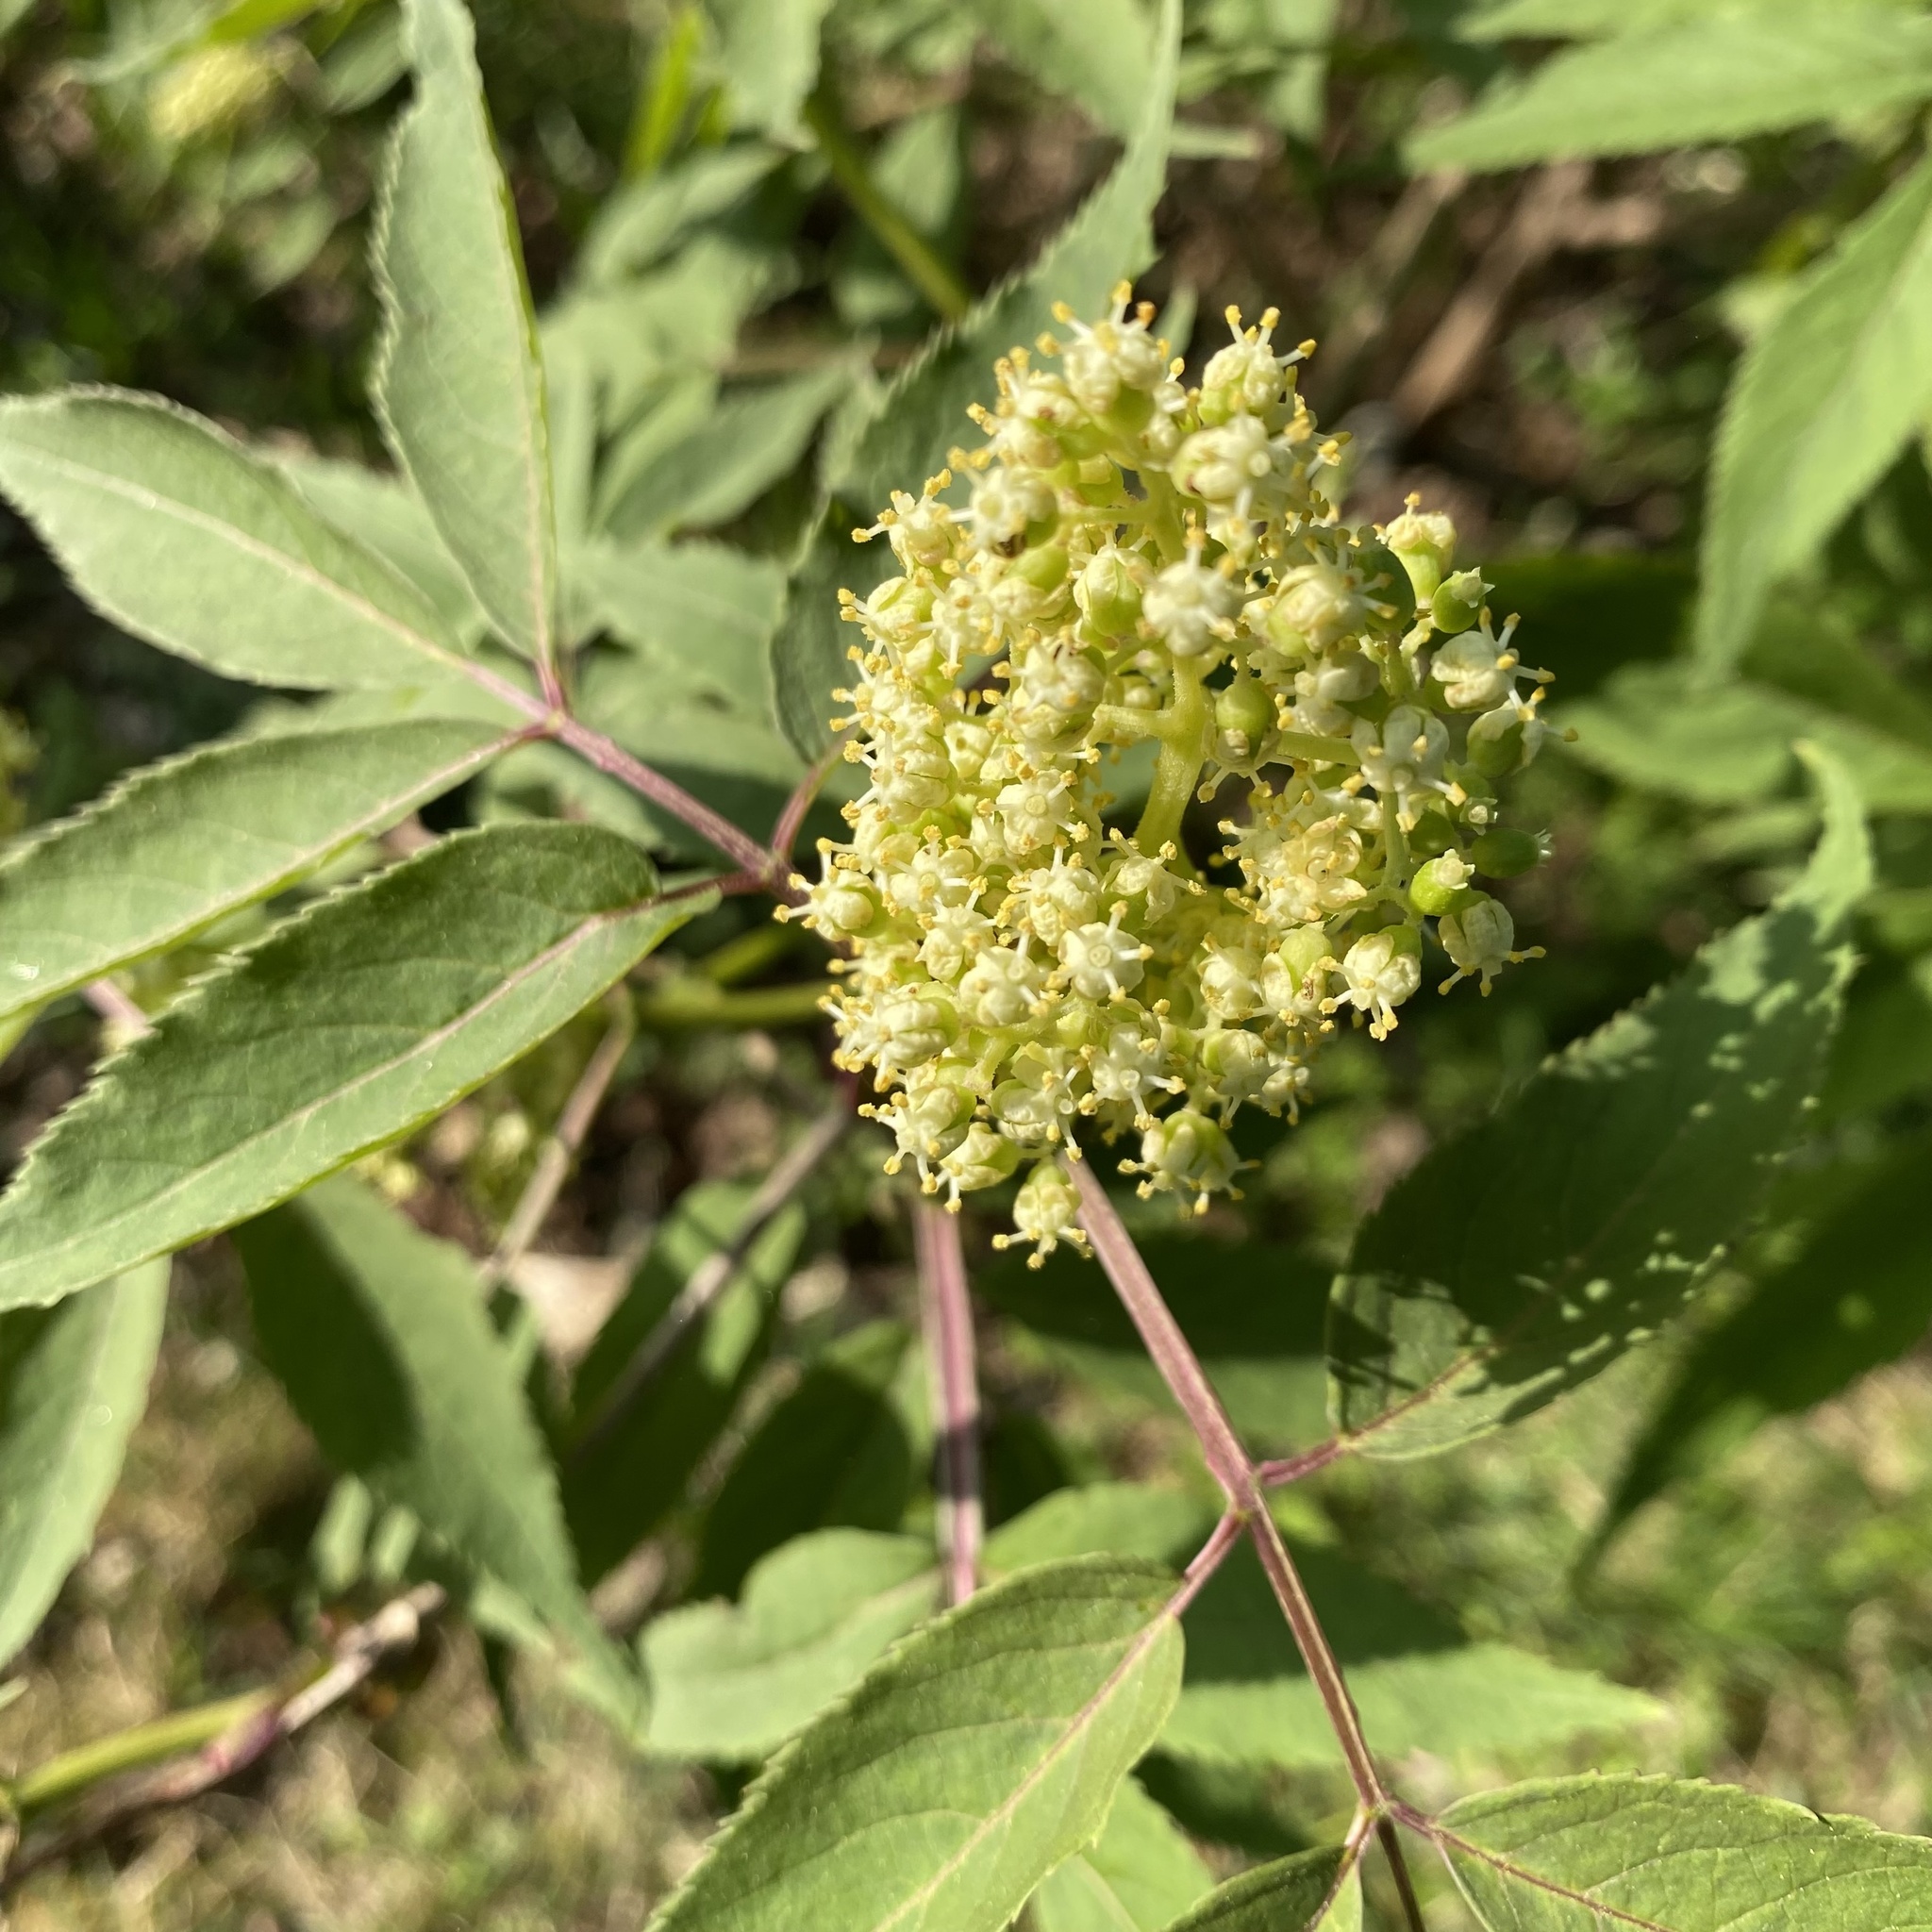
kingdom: Plantae
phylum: Tracheophyta
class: Magnoliopsida
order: Dipsacales
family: Viburnaceae
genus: Sambucus
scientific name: Sambucus racemosa
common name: Red-berried elder
